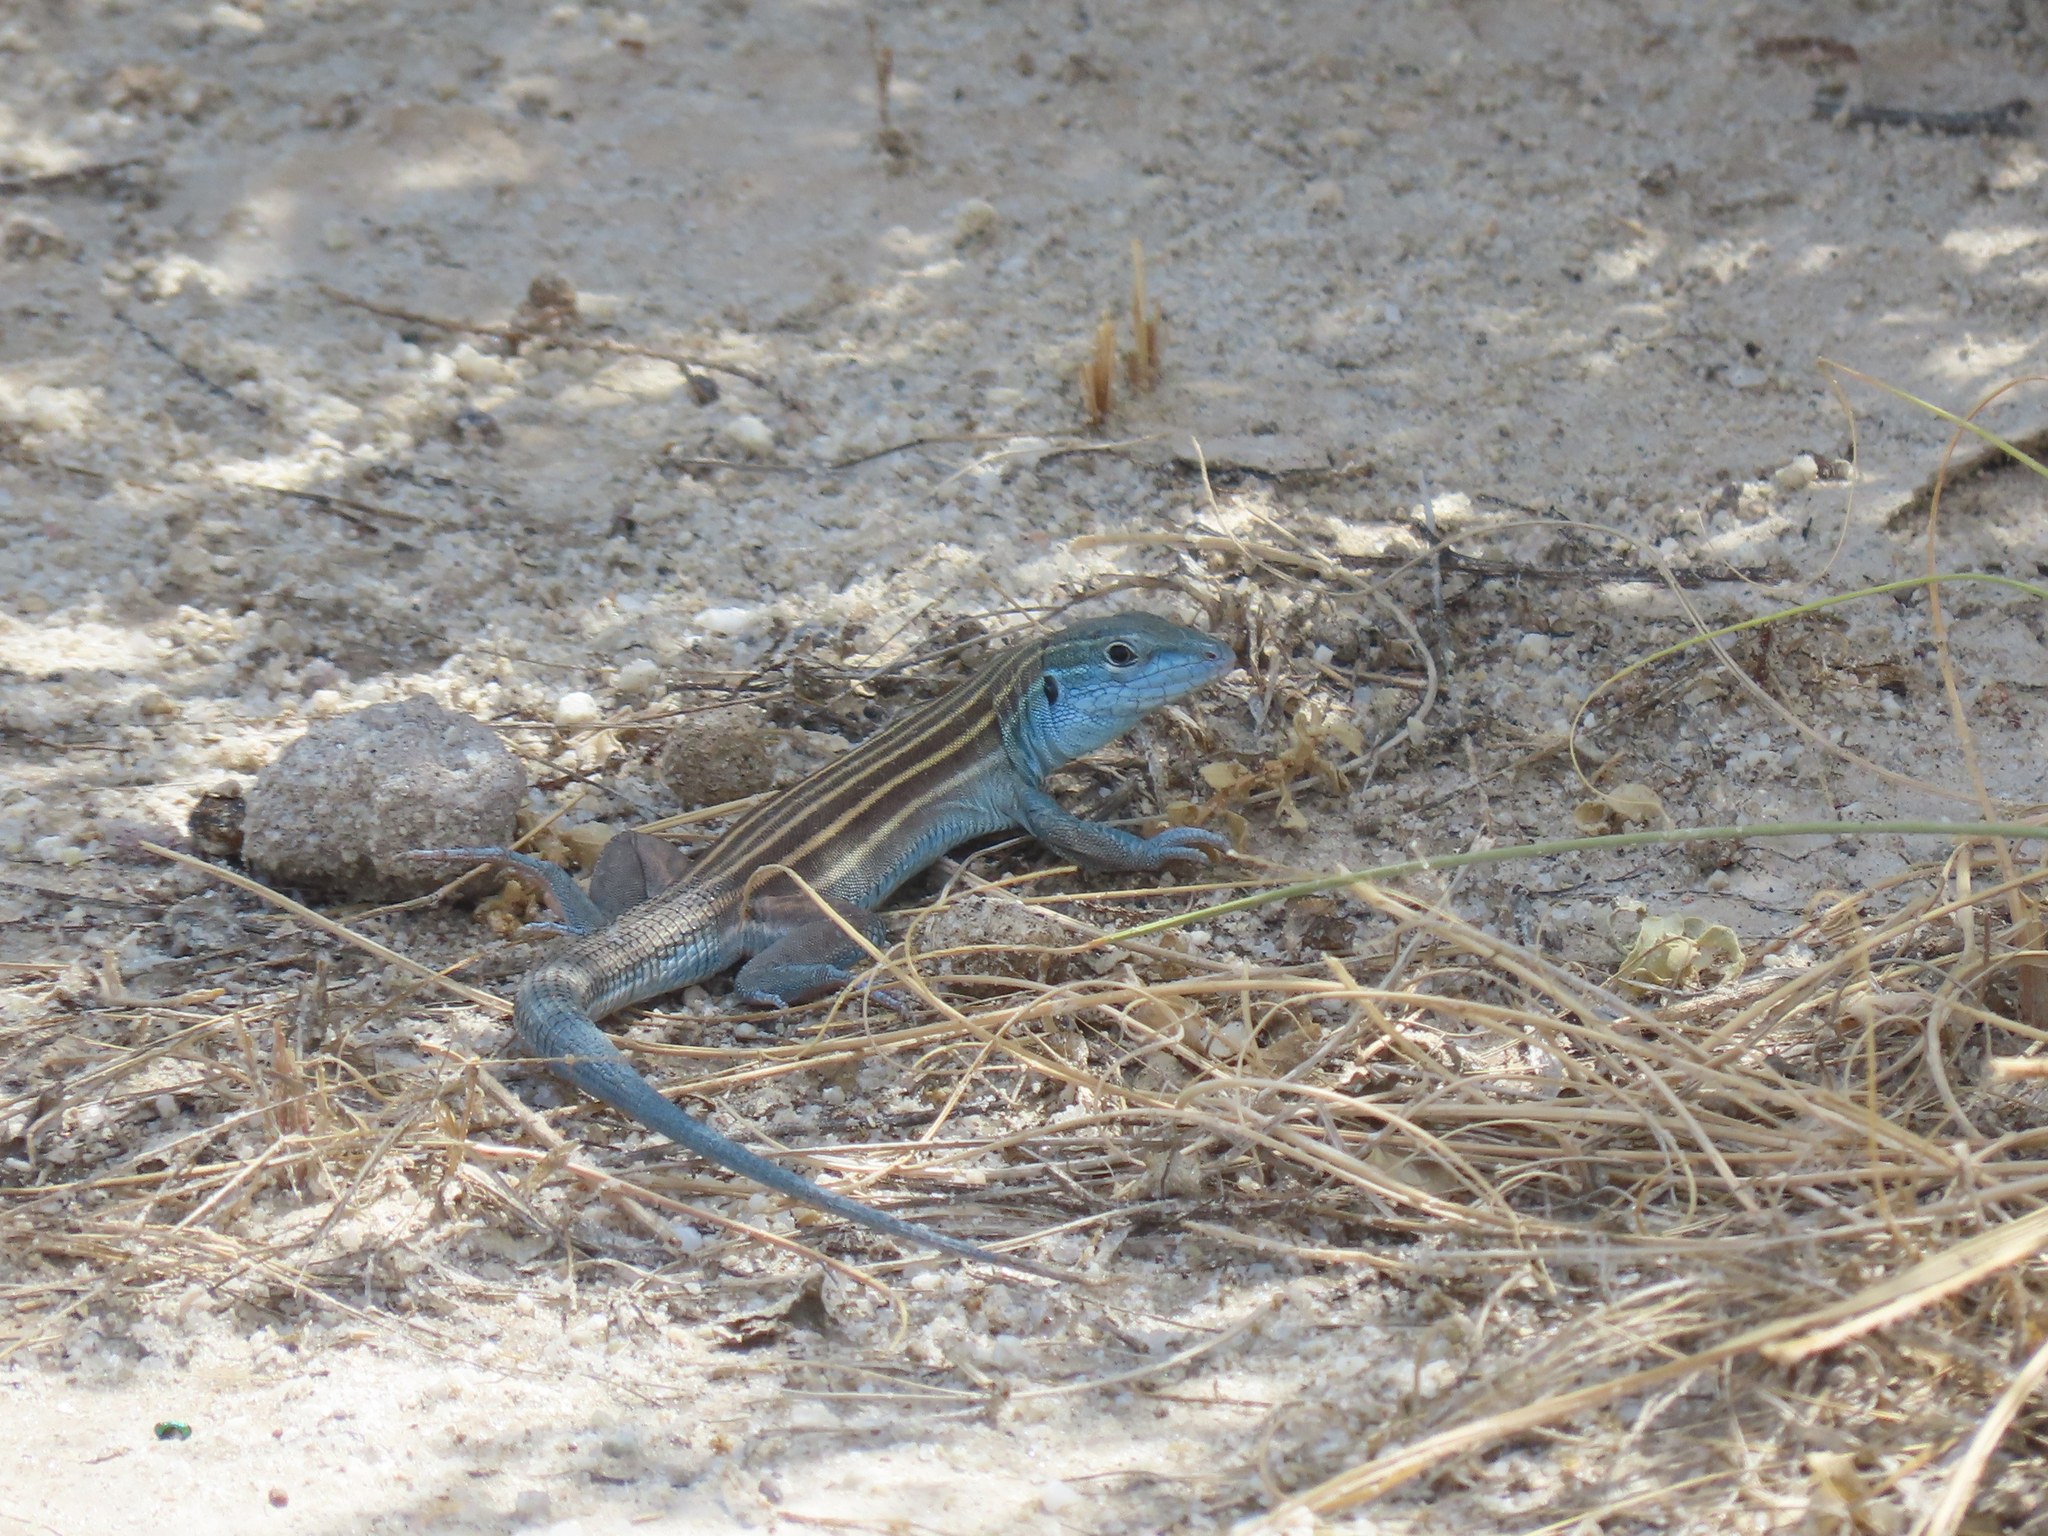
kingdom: Animalia
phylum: Chordata
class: Squamata
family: Teiidae
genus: Aspidoscelis
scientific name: Aspidoscelis inornatus
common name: Little striped whiptail
